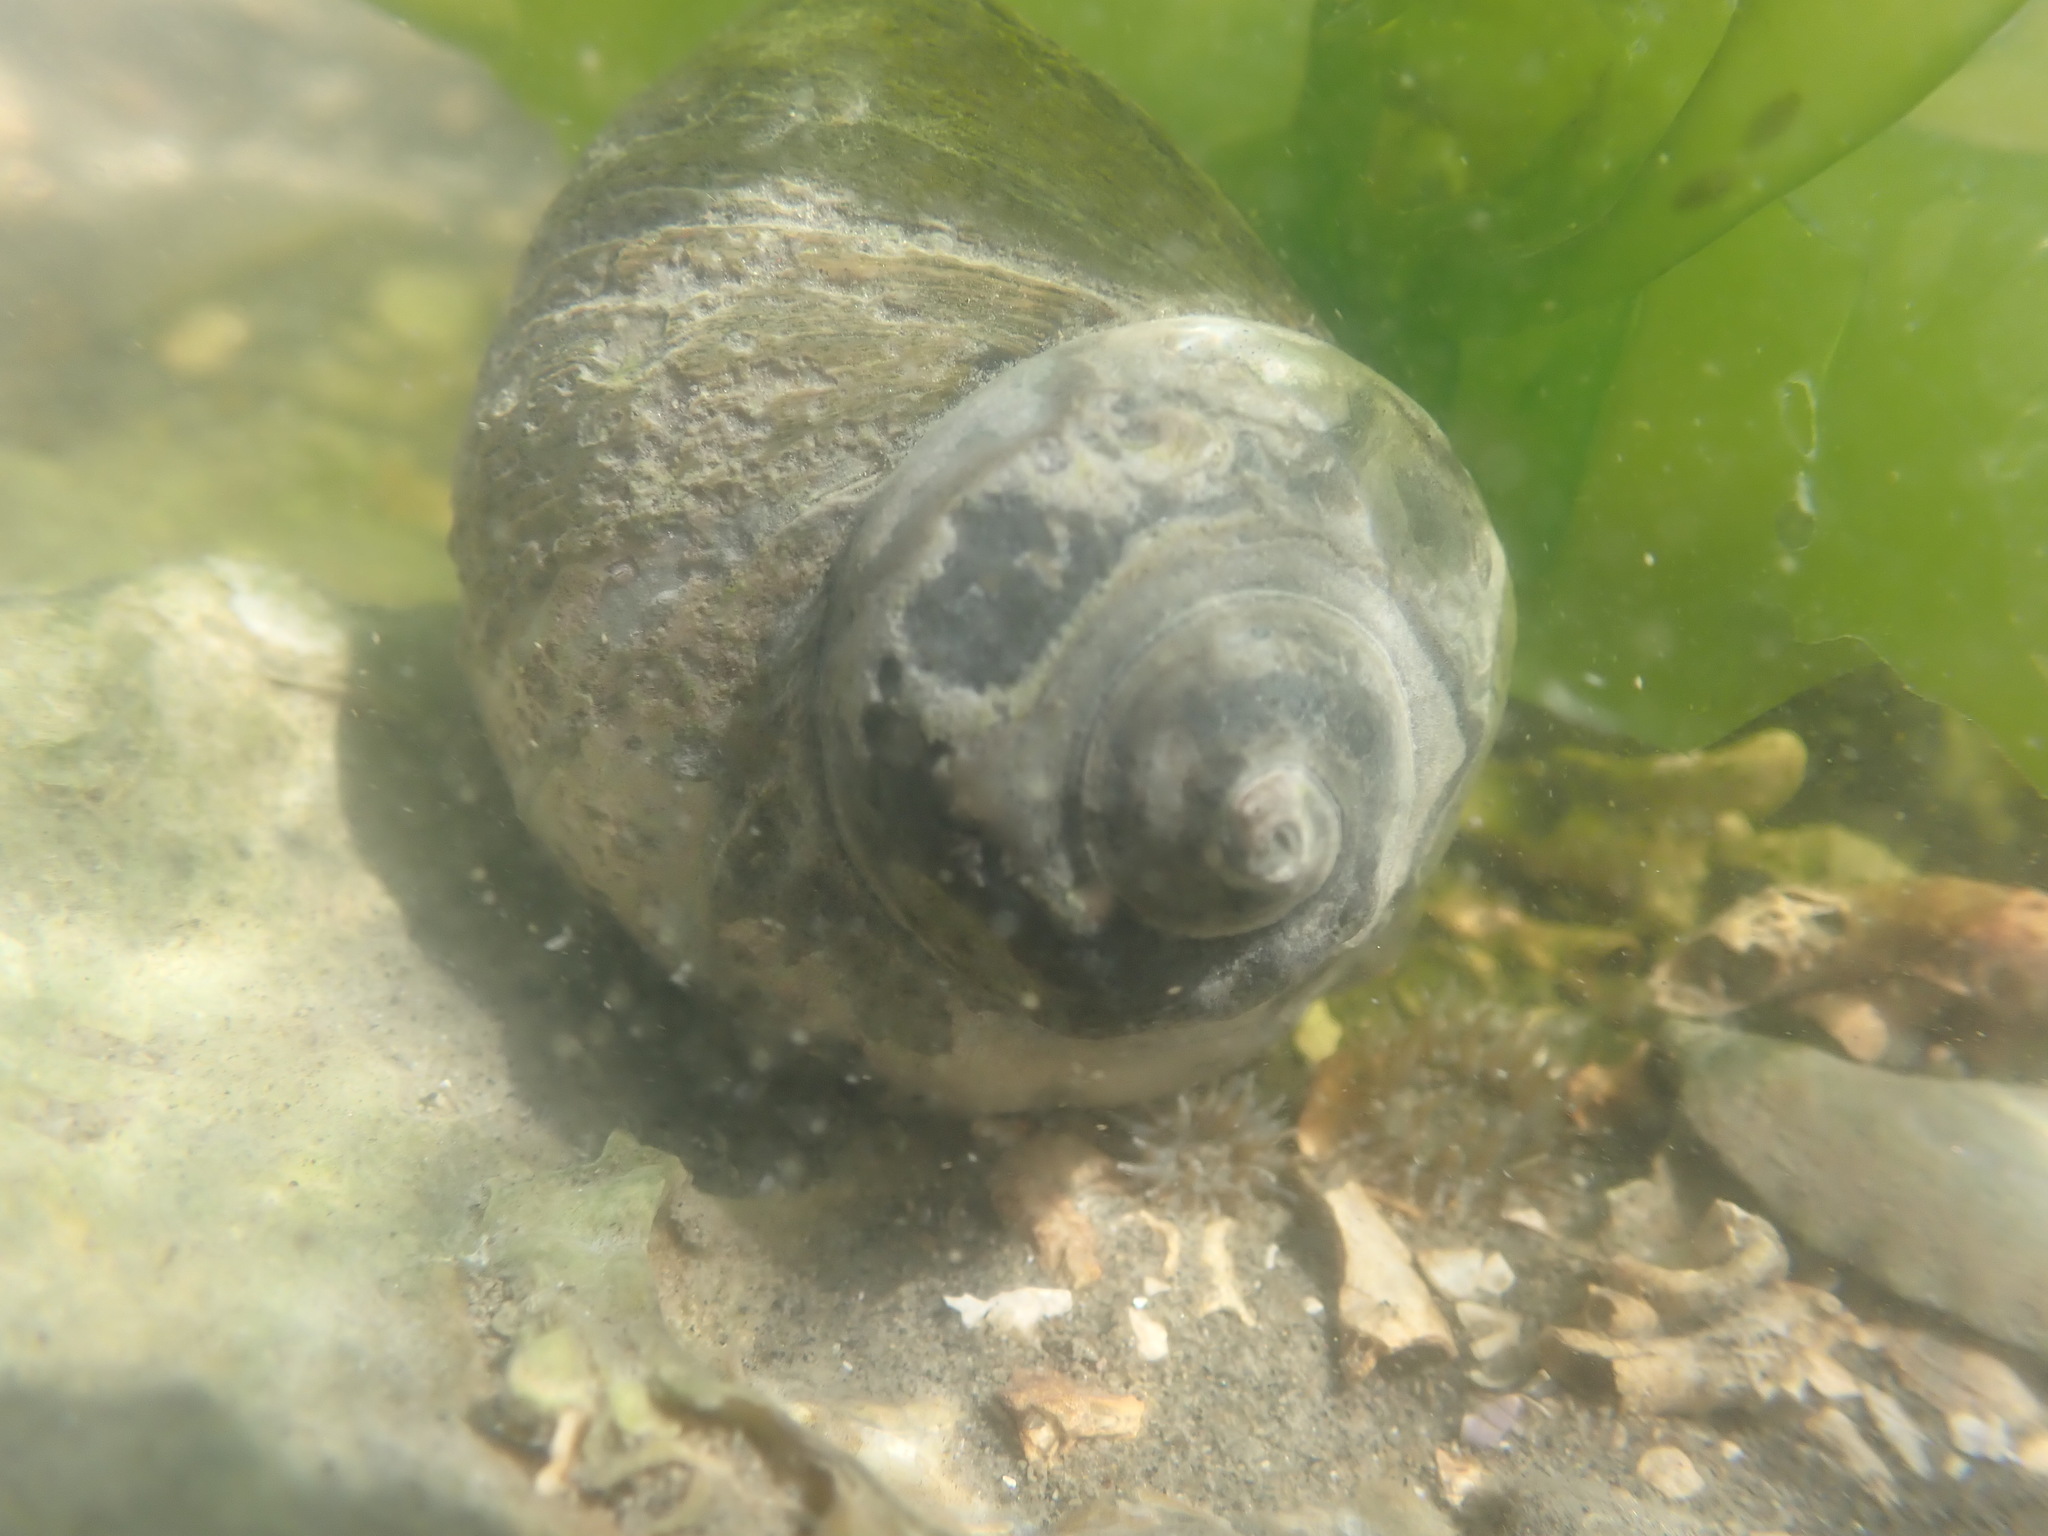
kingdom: Animalia
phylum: Mollusca
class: Gastropoda
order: Trochida
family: Turbinidae
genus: Lunella
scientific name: Lunella smaragda
